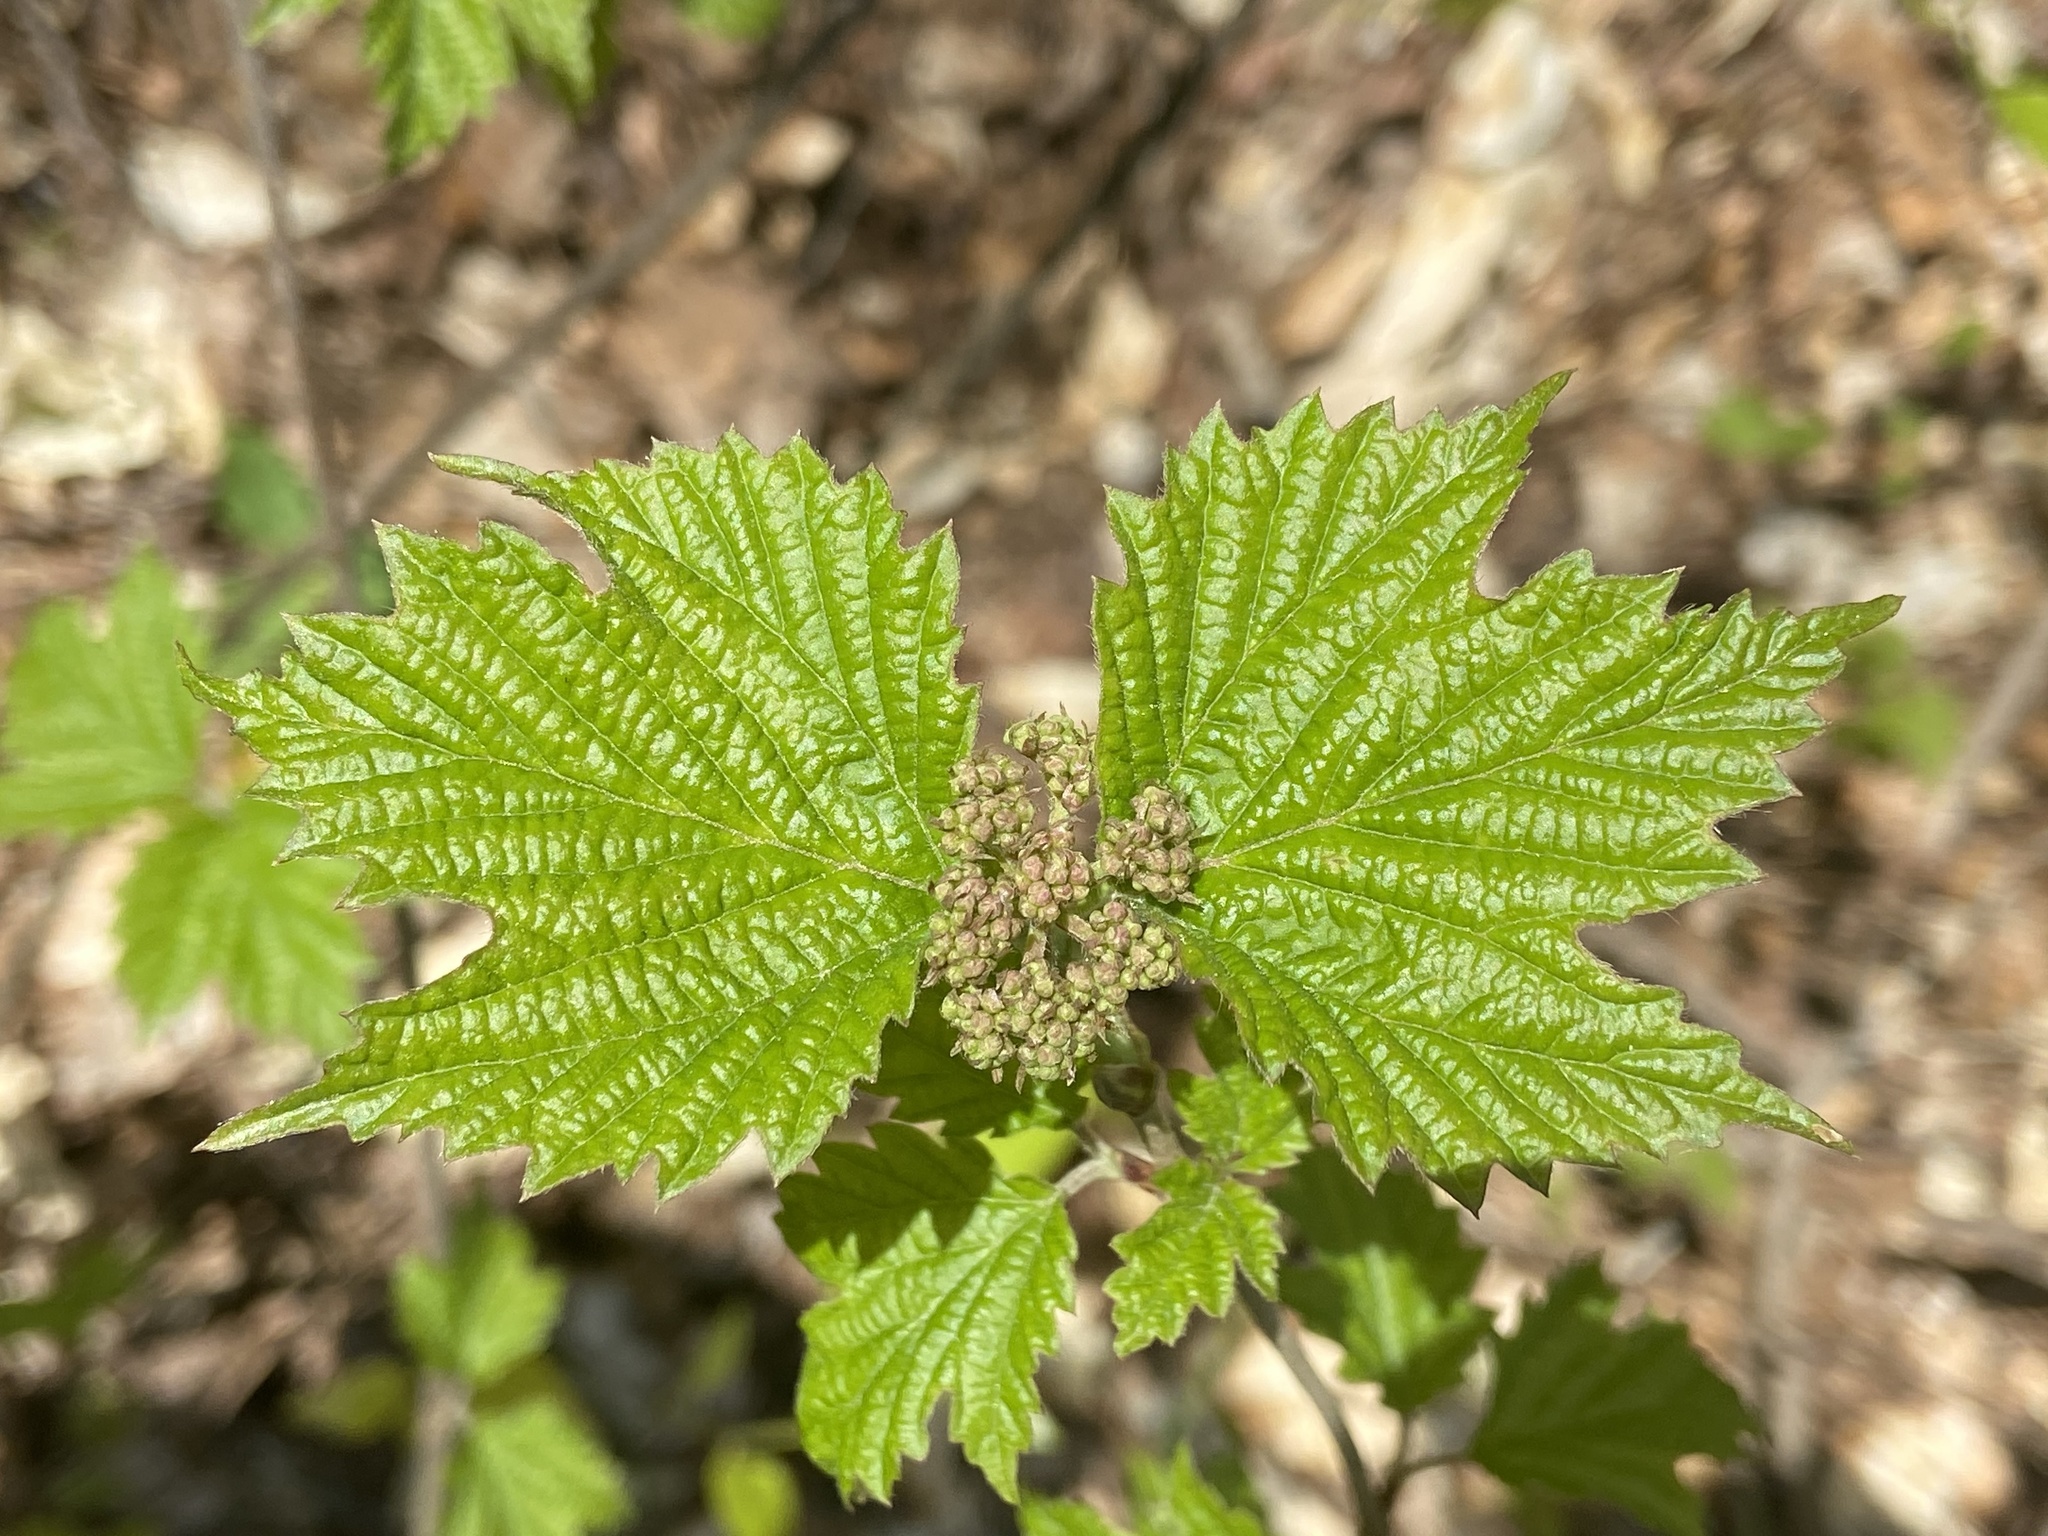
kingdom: Plantae
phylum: Tracheophyta
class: Magnoliopsida
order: Dipsacales
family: Viburnaceae
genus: Viburnum
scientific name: Viburnum acerifolium
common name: Dockmackie
